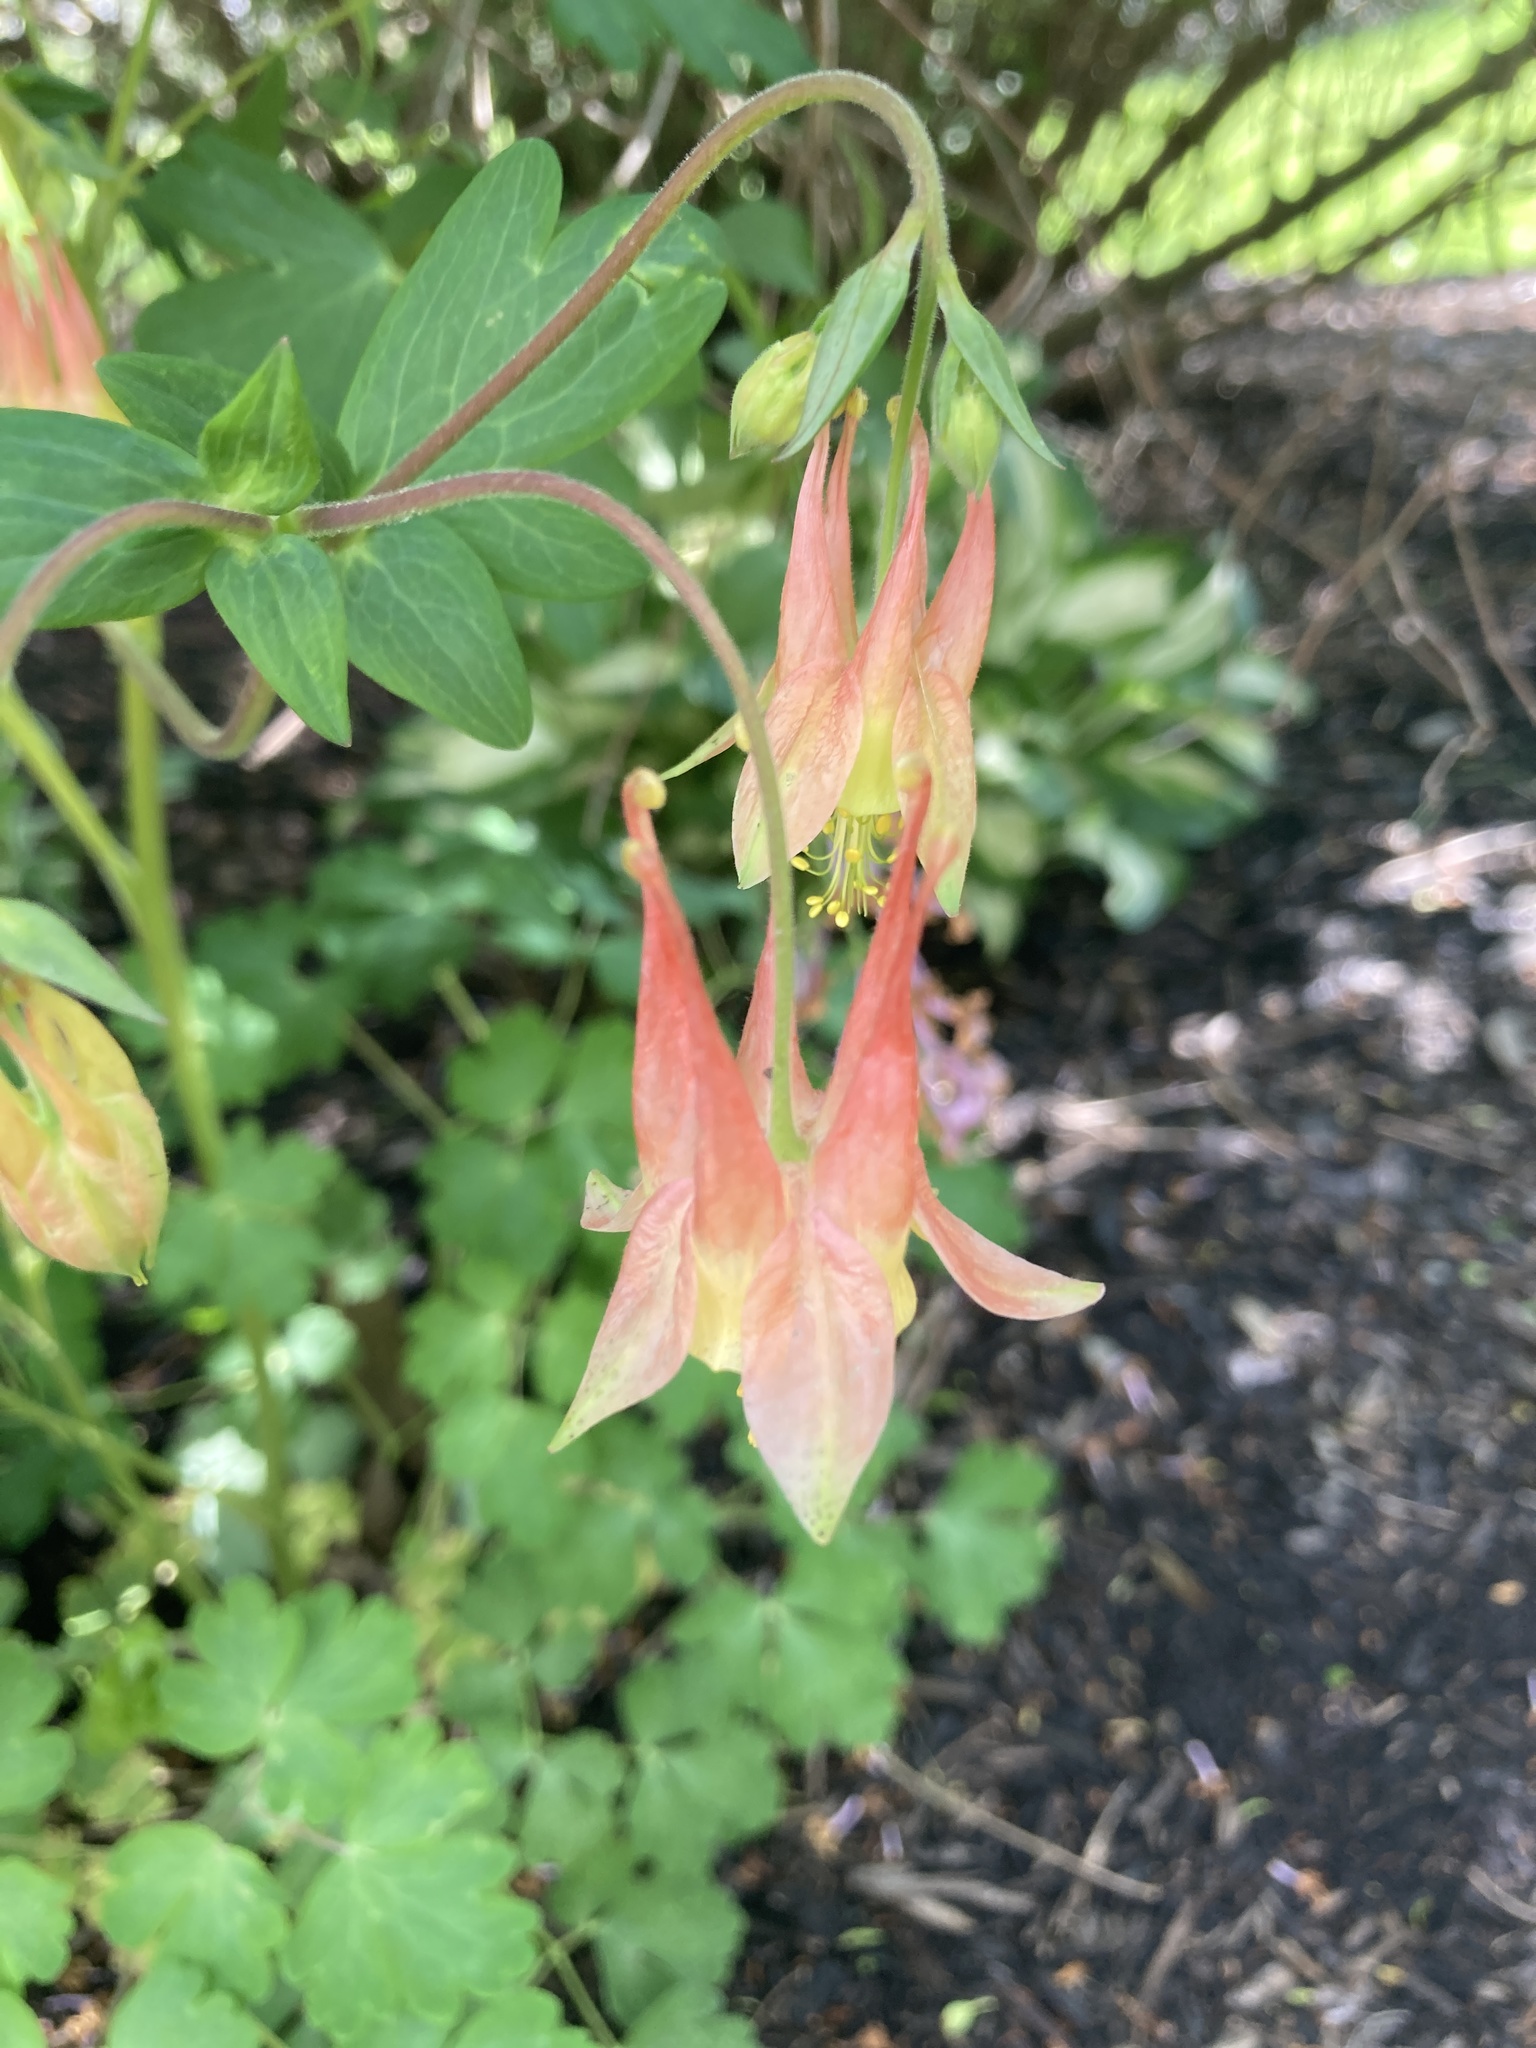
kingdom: Plantae
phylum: Tracheophyta
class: Magnoliopsida
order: Ranunculales
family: Ranunculaceae
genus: Aquilegia
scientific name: Aquilegia canadensis
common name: American columbine
